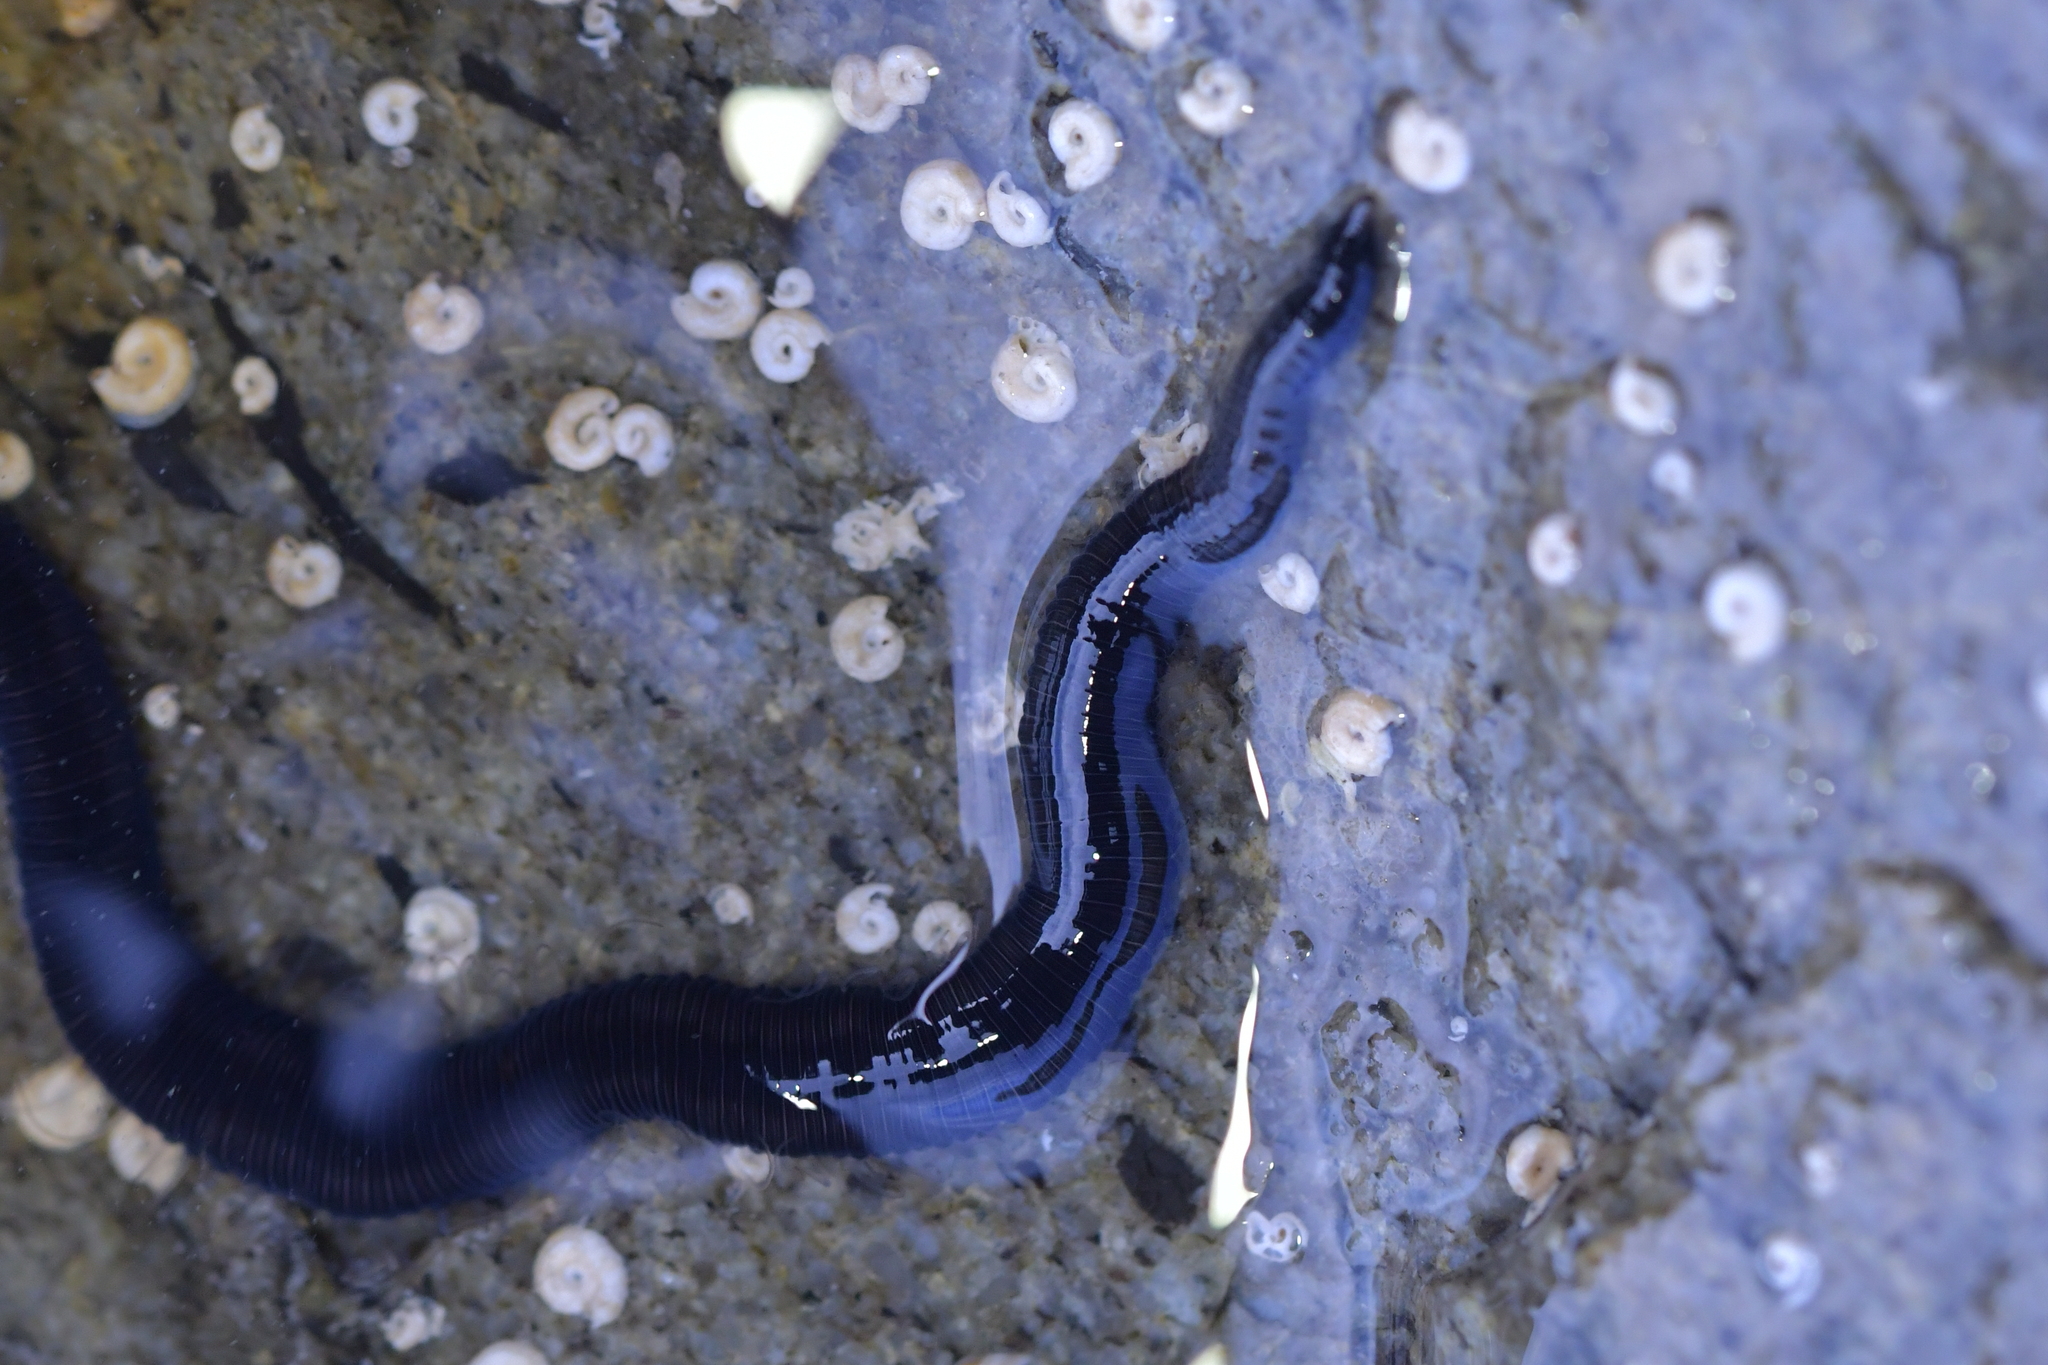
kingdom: Animalia
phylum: Annelida
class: Polychaeta
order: Phyllodocida
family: Syllidae
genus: Odontosyllis
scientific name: Odontosyllis polycera
